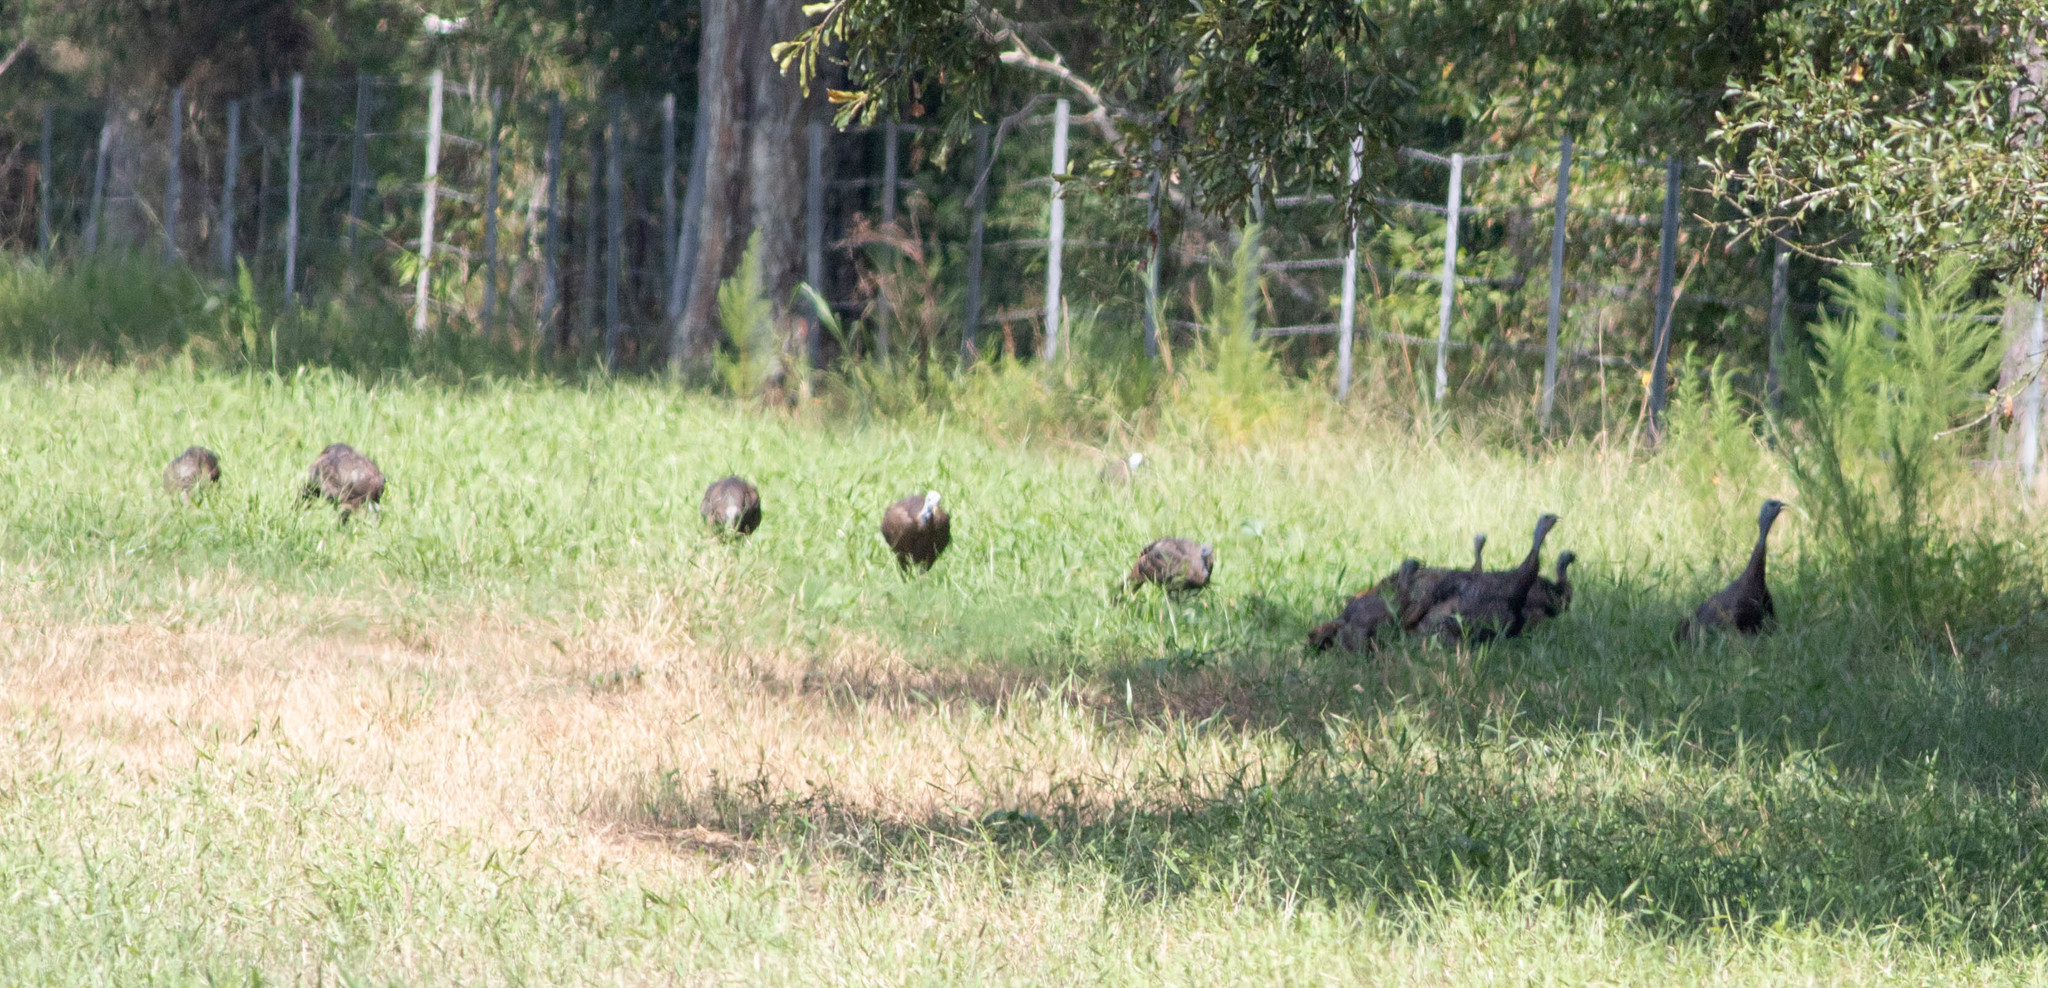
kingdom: Animalia
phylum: Chordata
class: Aves
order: Galliformes
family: Phasianidae
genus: Meleagris
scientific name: Meleagris gallopavo
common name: Wild turkey
